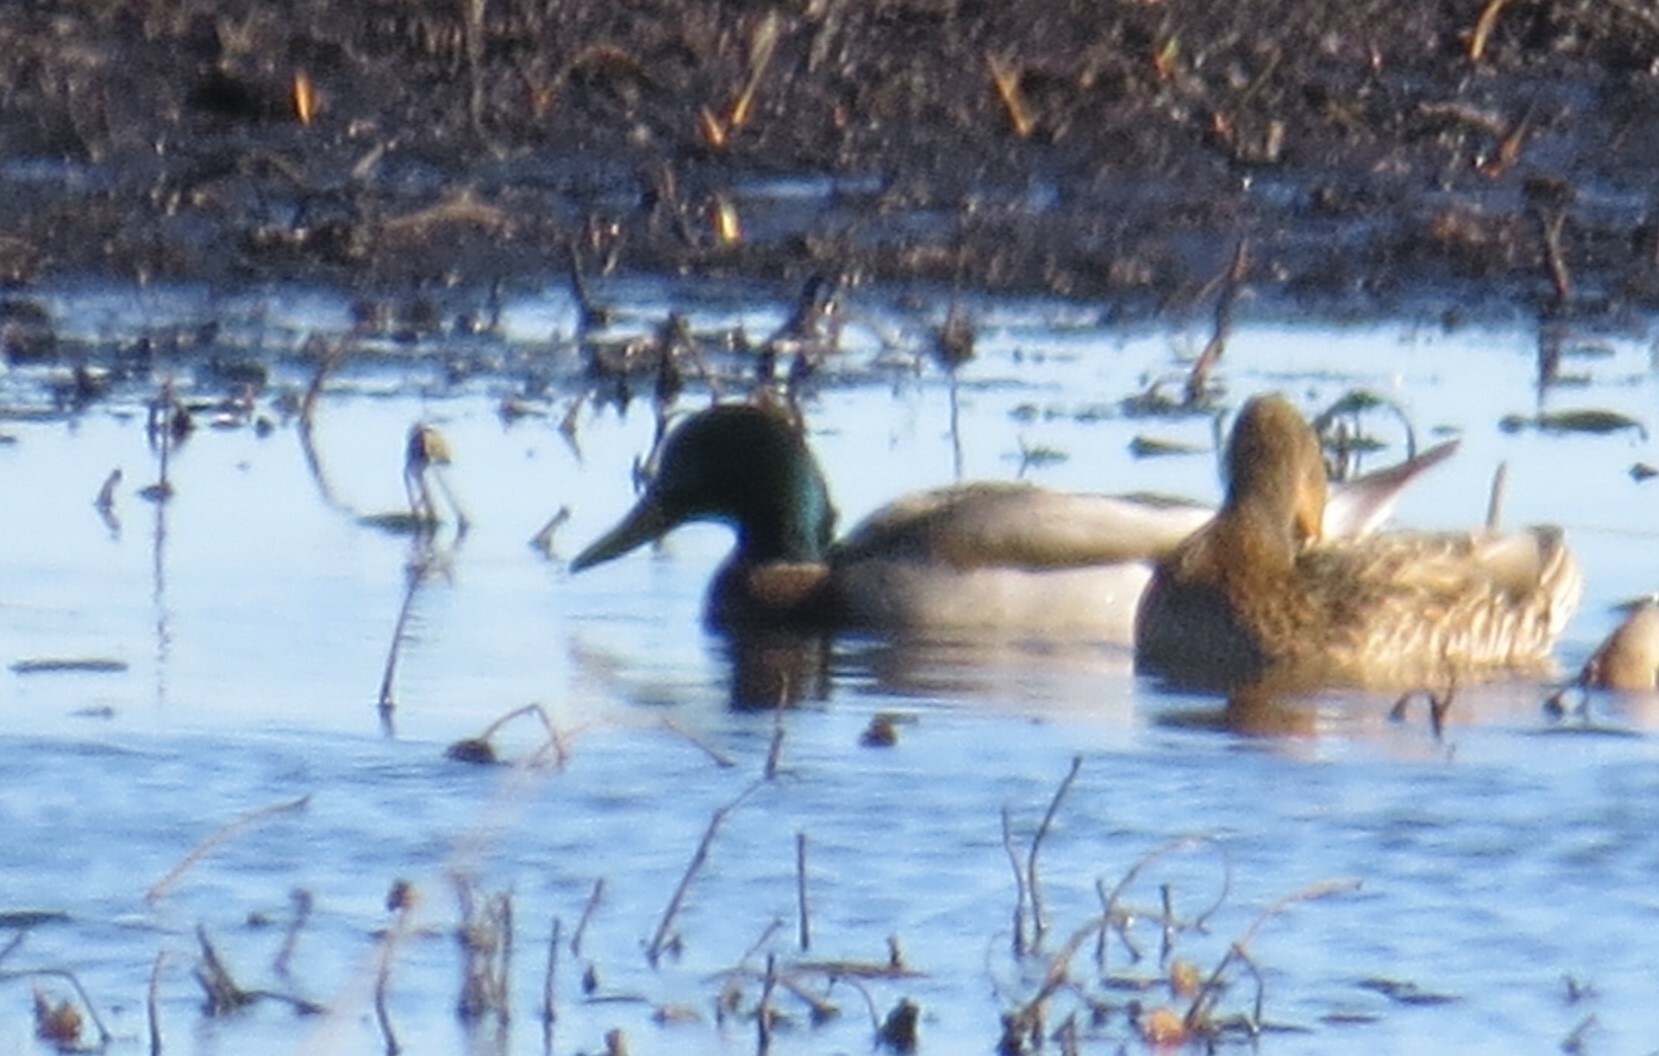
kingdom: Animalia
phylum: Chordata
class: Aves
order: Anseriformes
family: Anatidae
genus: Anas
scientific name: Anas platyrhynchos
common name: Mallard
